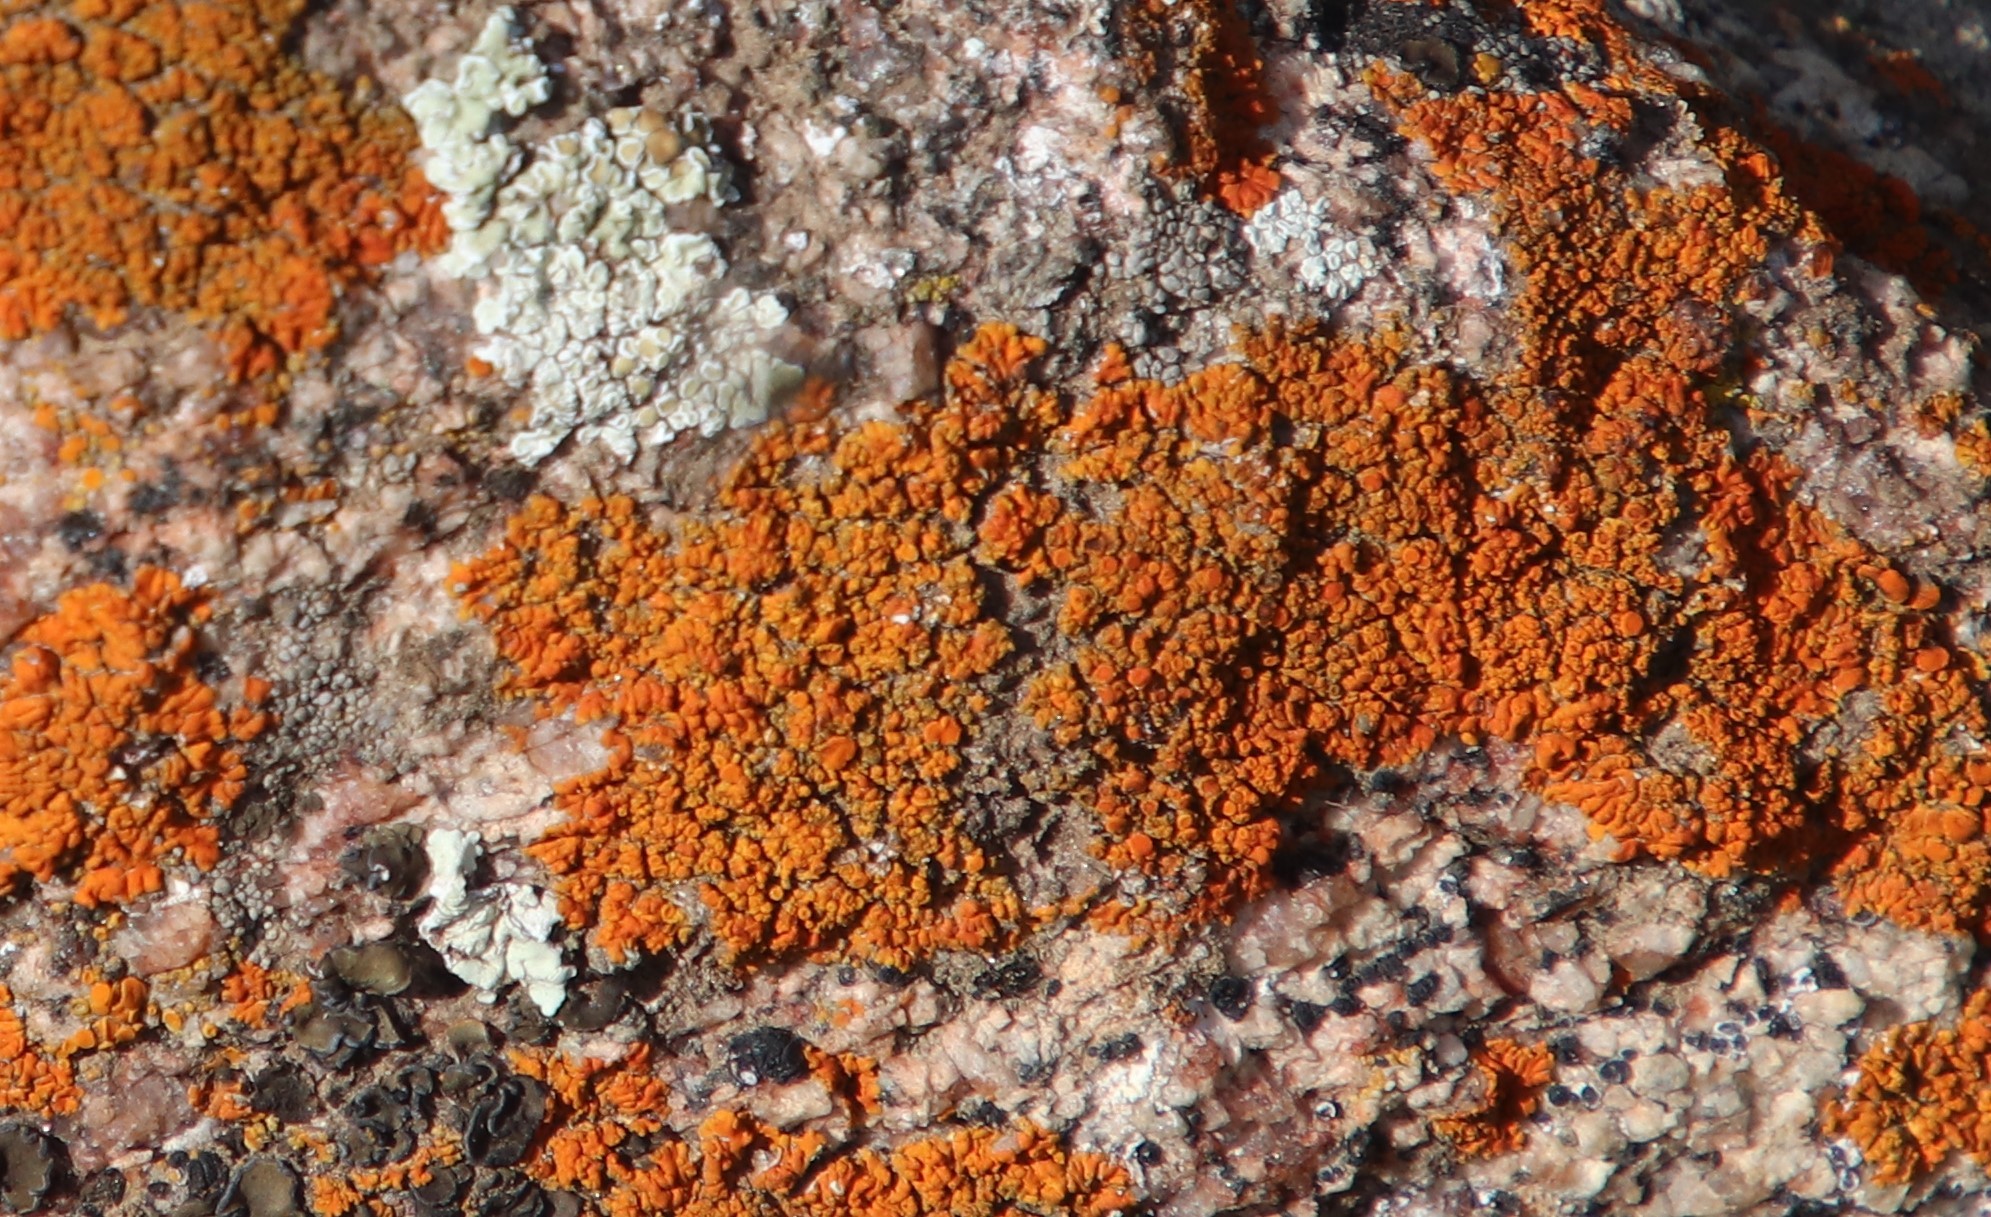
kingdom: Fungi
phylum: Ascomycota
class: Lecanoromycetes
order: Teloschistales
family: Teloschistaceae
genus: Xanthoria
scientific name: Xanthoria elegans
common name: Elegant sunburst lichen
